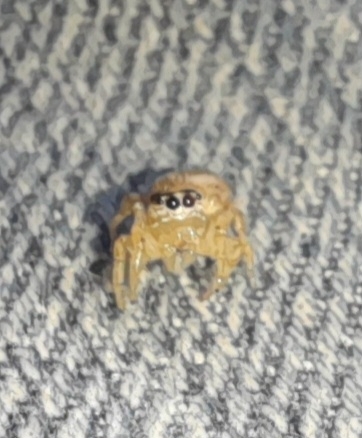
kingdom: Animalia
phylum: Arthropoda
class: Arachnida
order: Araneae
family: Salticidae
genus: Colonus
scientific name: Colonus hesperus
